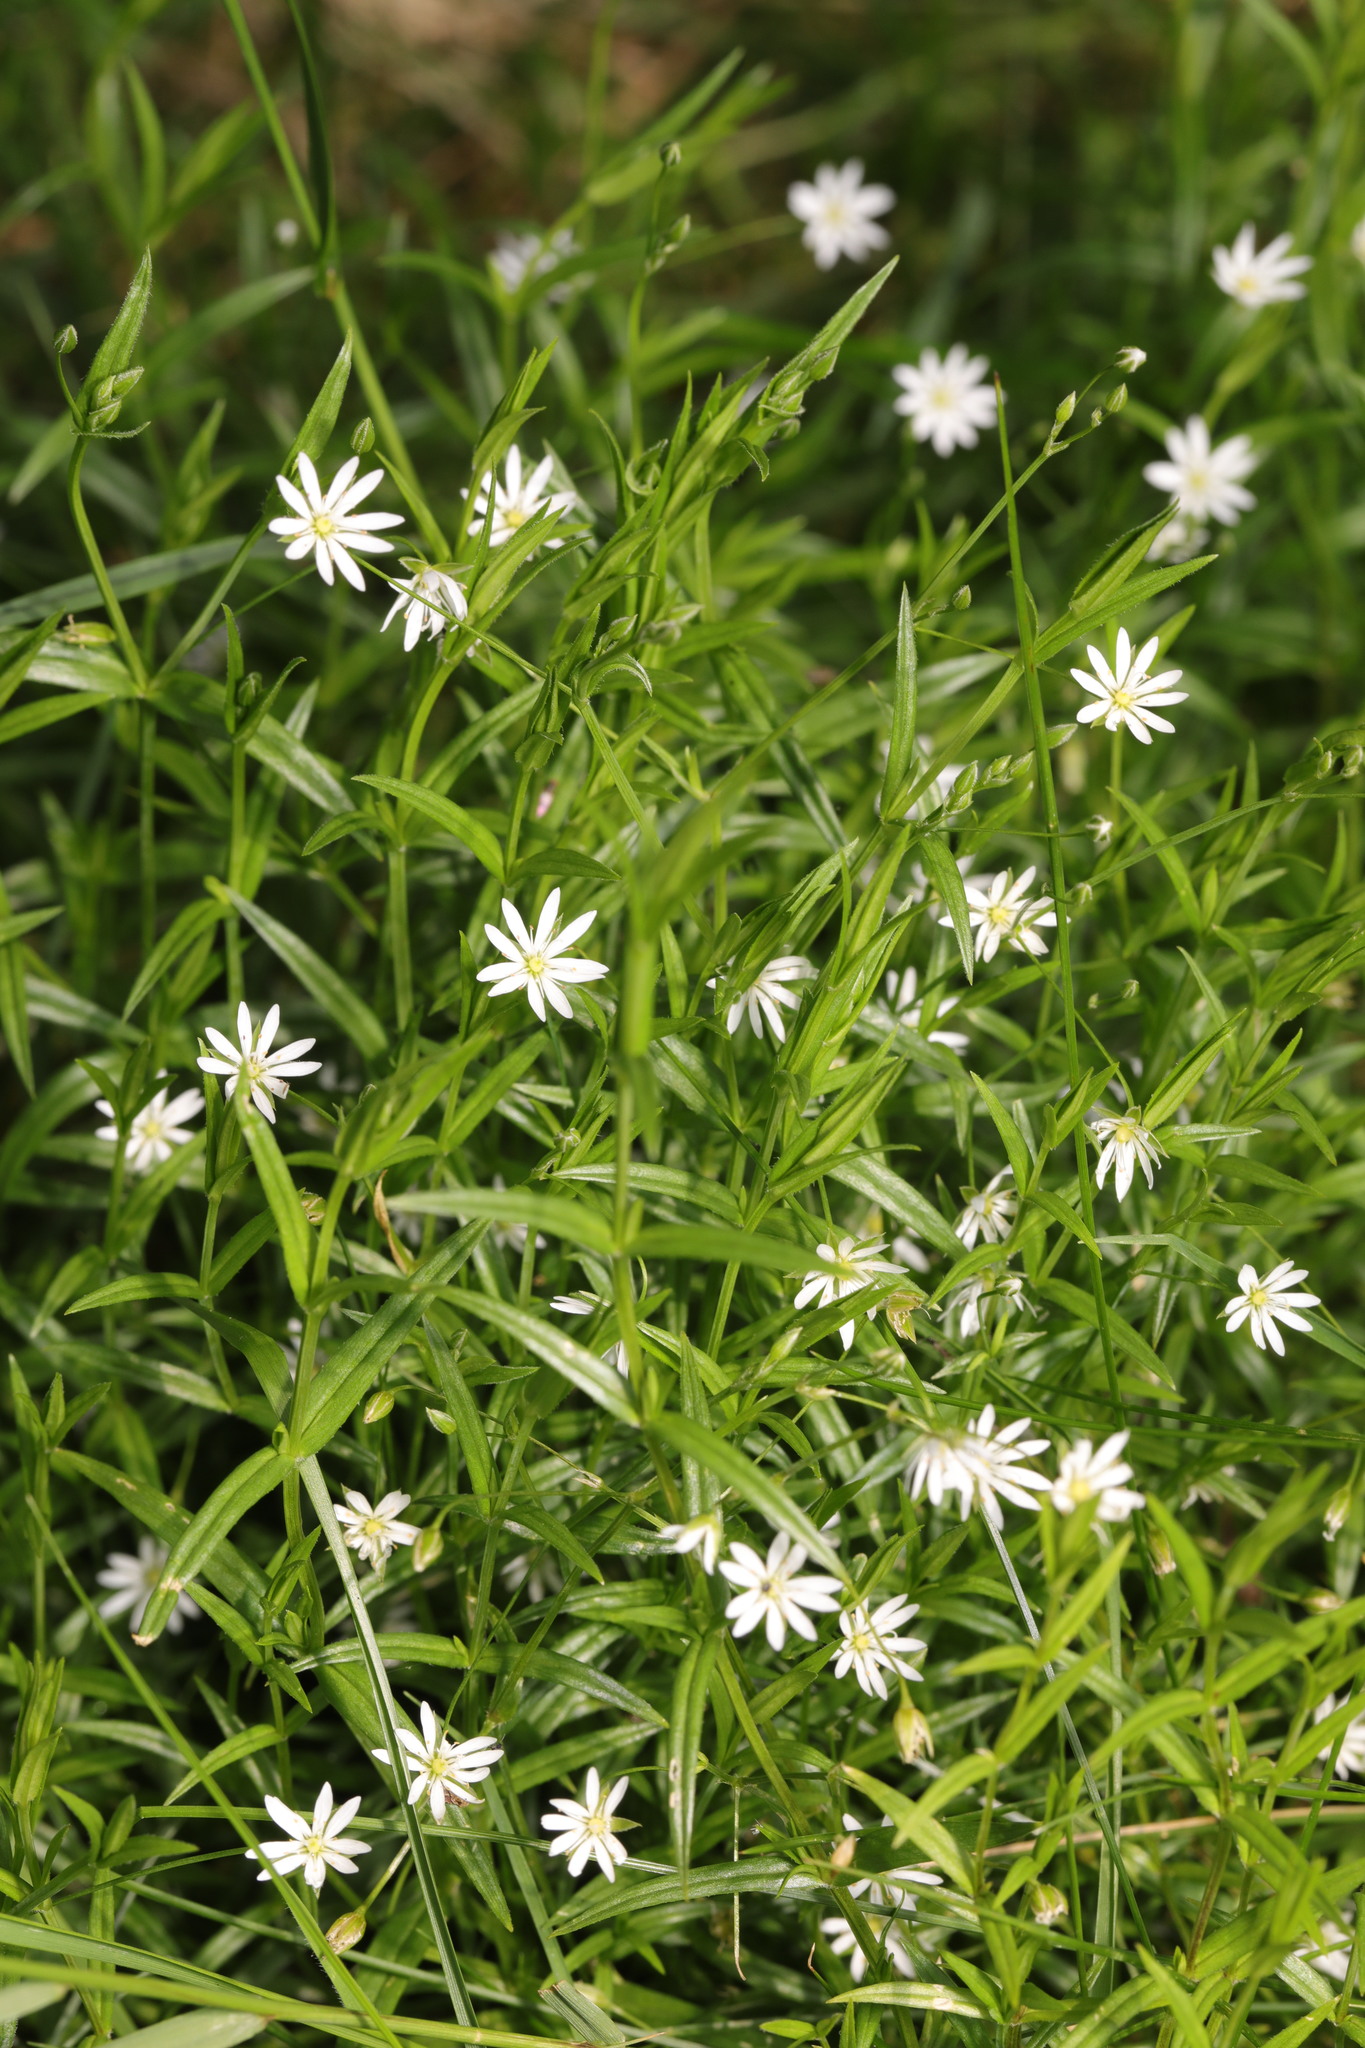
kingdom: Plantae
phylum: Tracheophyta
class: Magnoliopsida
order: Caryophyllales
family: Caryophyllaceae
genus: Stellaria
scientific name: Stellaria graminea
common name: Grass-like starwort
